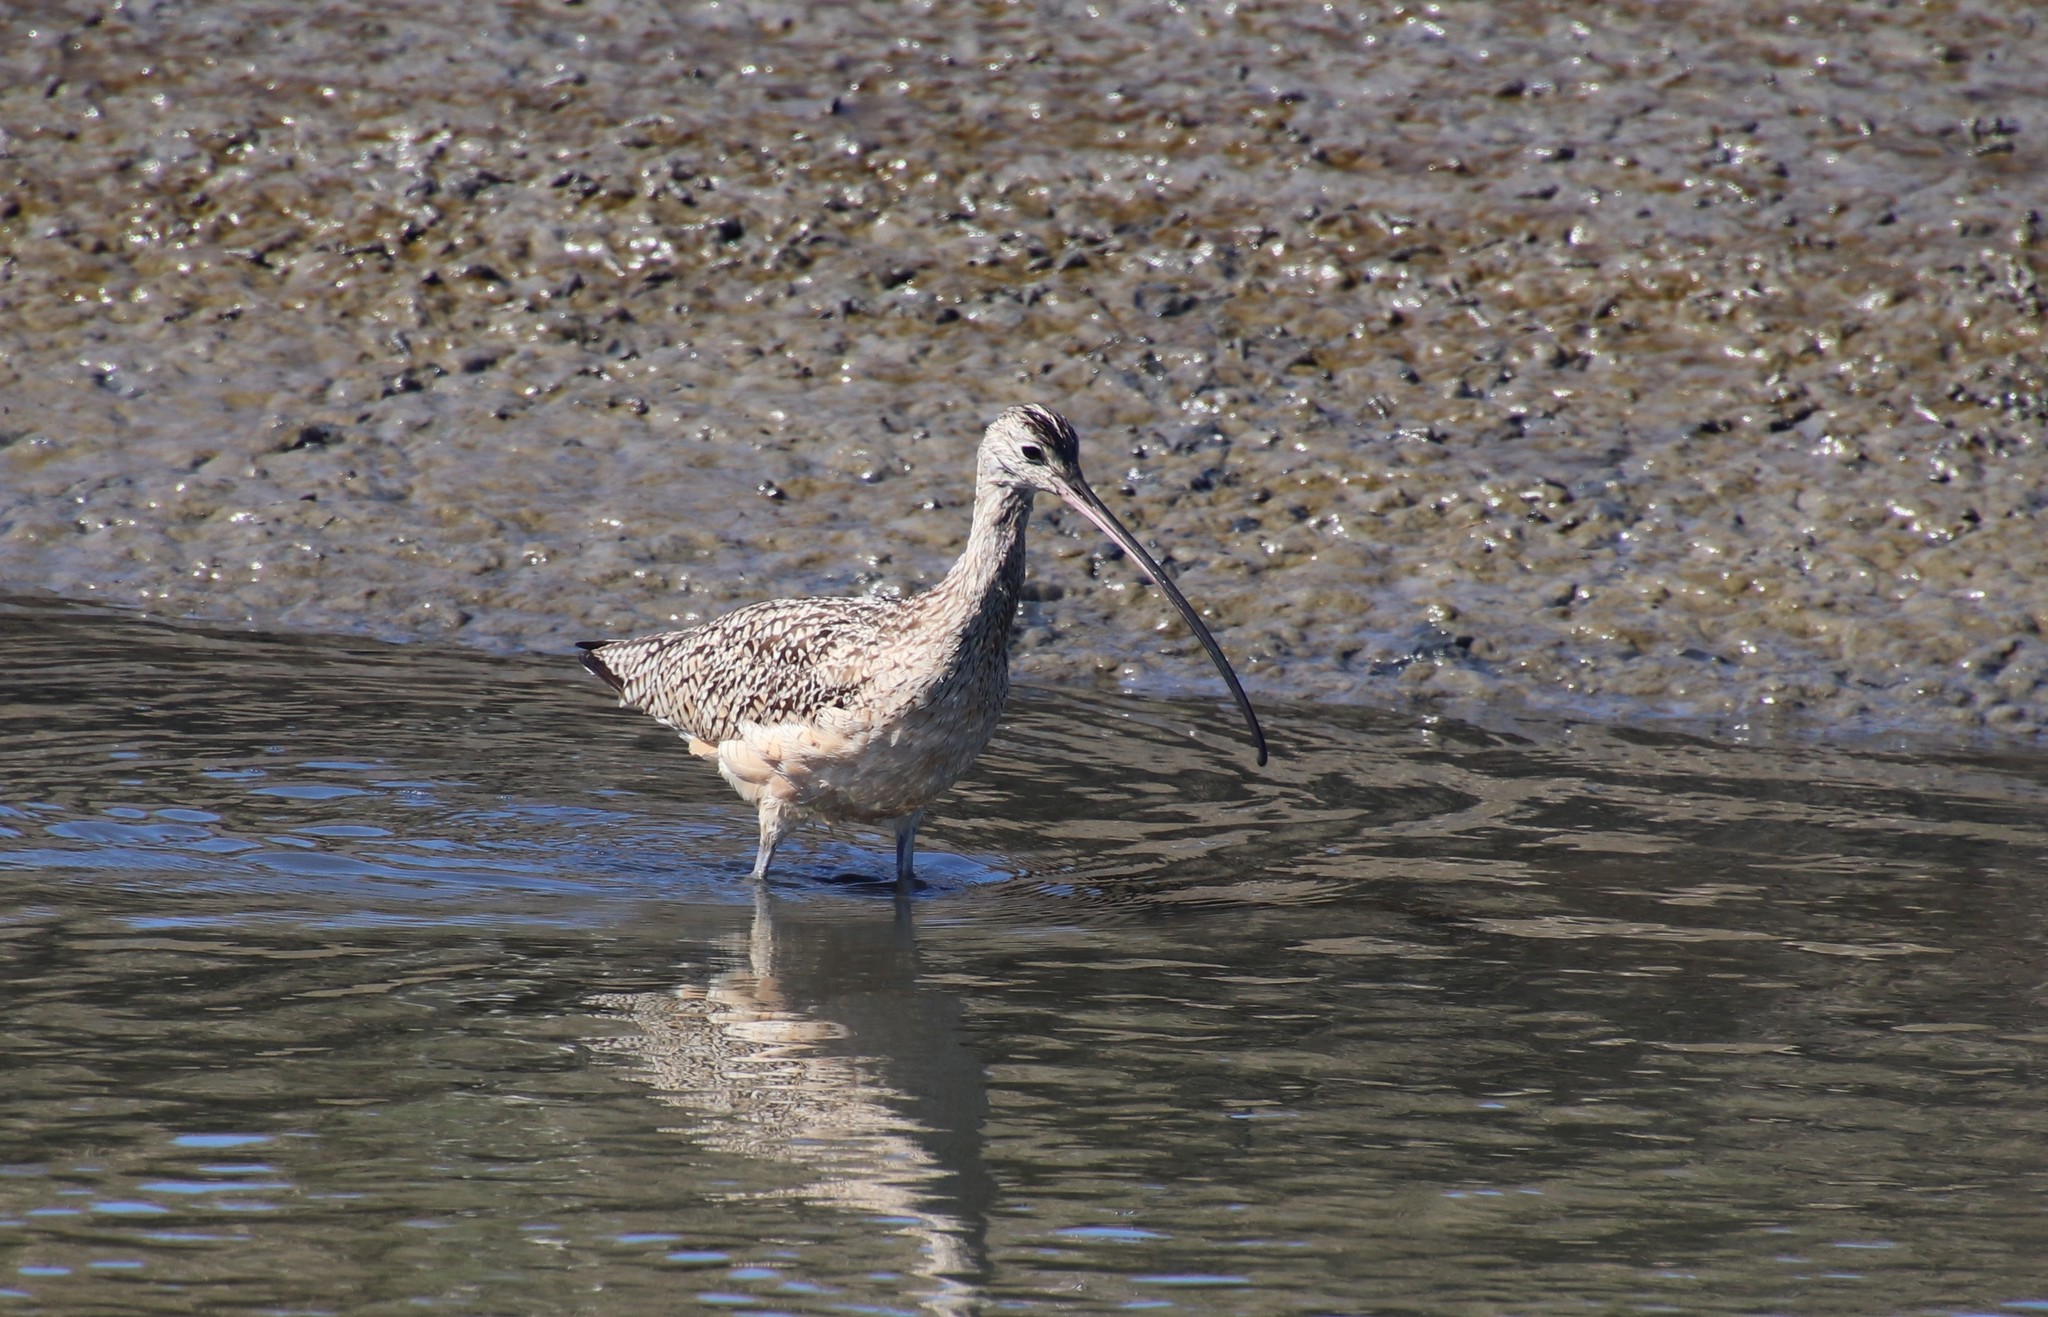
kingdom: Animalia
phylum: Chordata
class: Aves
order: Charadriiformes
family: Scolopacidae
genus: Numenius
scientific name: Numenius americanus
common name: Long-billed curlew
